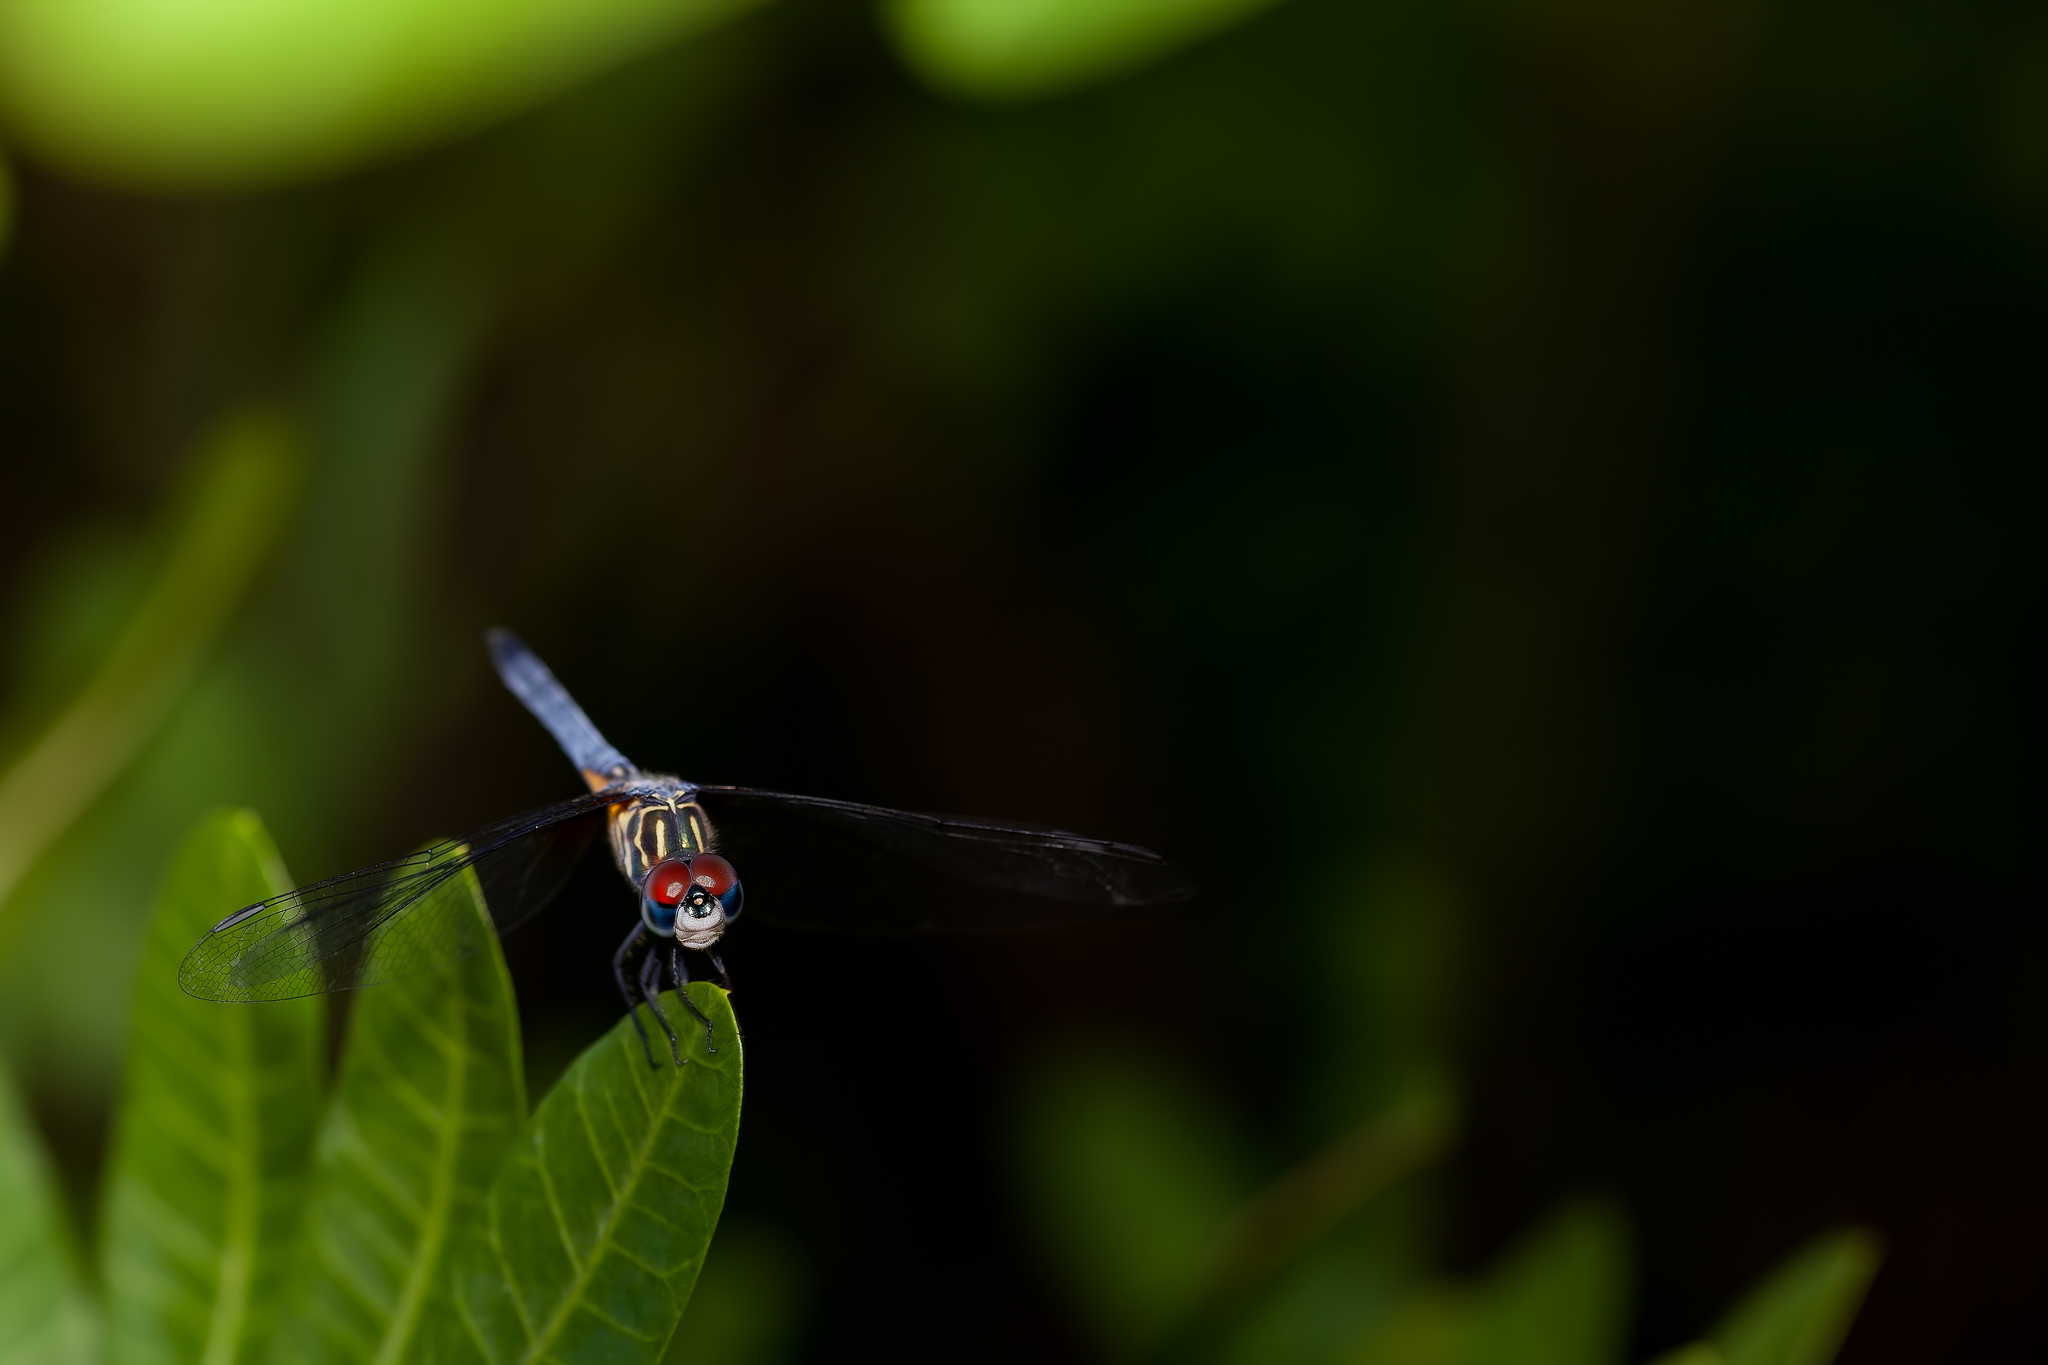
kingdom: Animalia
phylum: Arthropoda
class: Insecta
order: Odonata
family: Libellulidae
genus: Pachydiplax
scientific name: Pachydiplax longipennis
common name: Blue dasher
